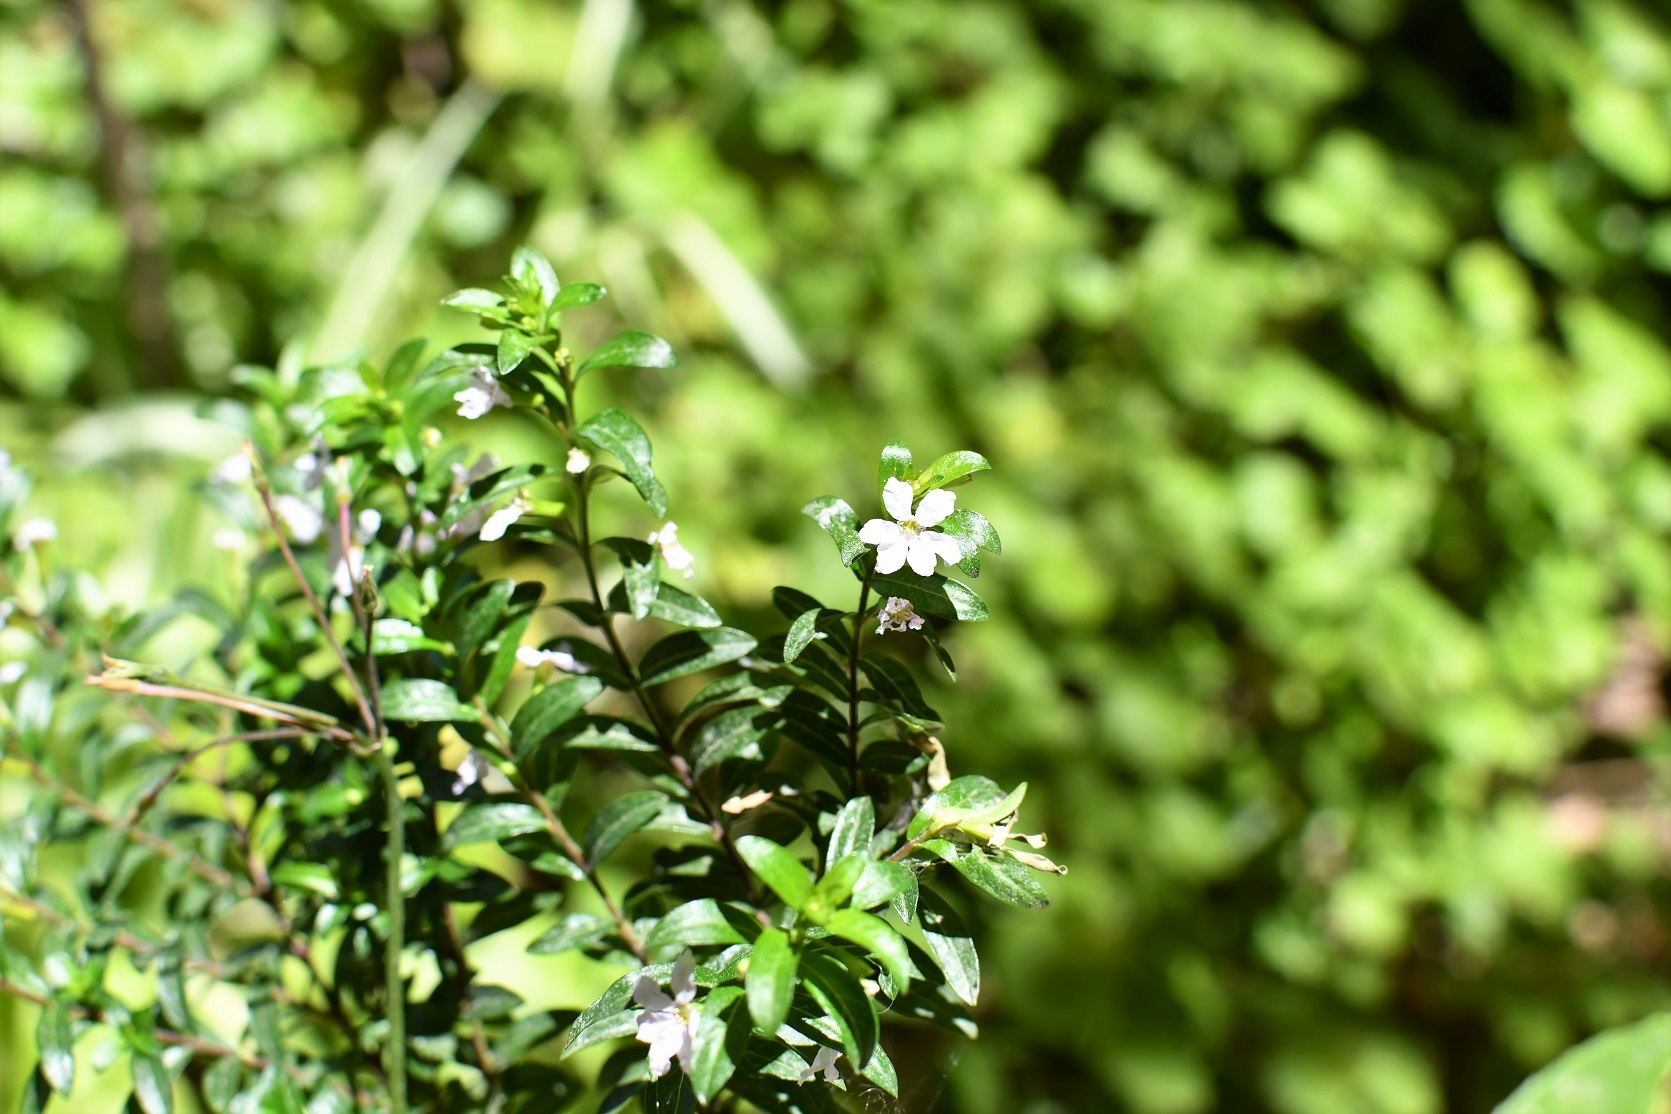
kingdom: Plantae
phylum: Tracheophyta
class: Magnoliopsida
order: Myrtales
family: Lythraceae
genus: Cuphea
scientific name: Cuphea hyssopifolia
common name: False heather
